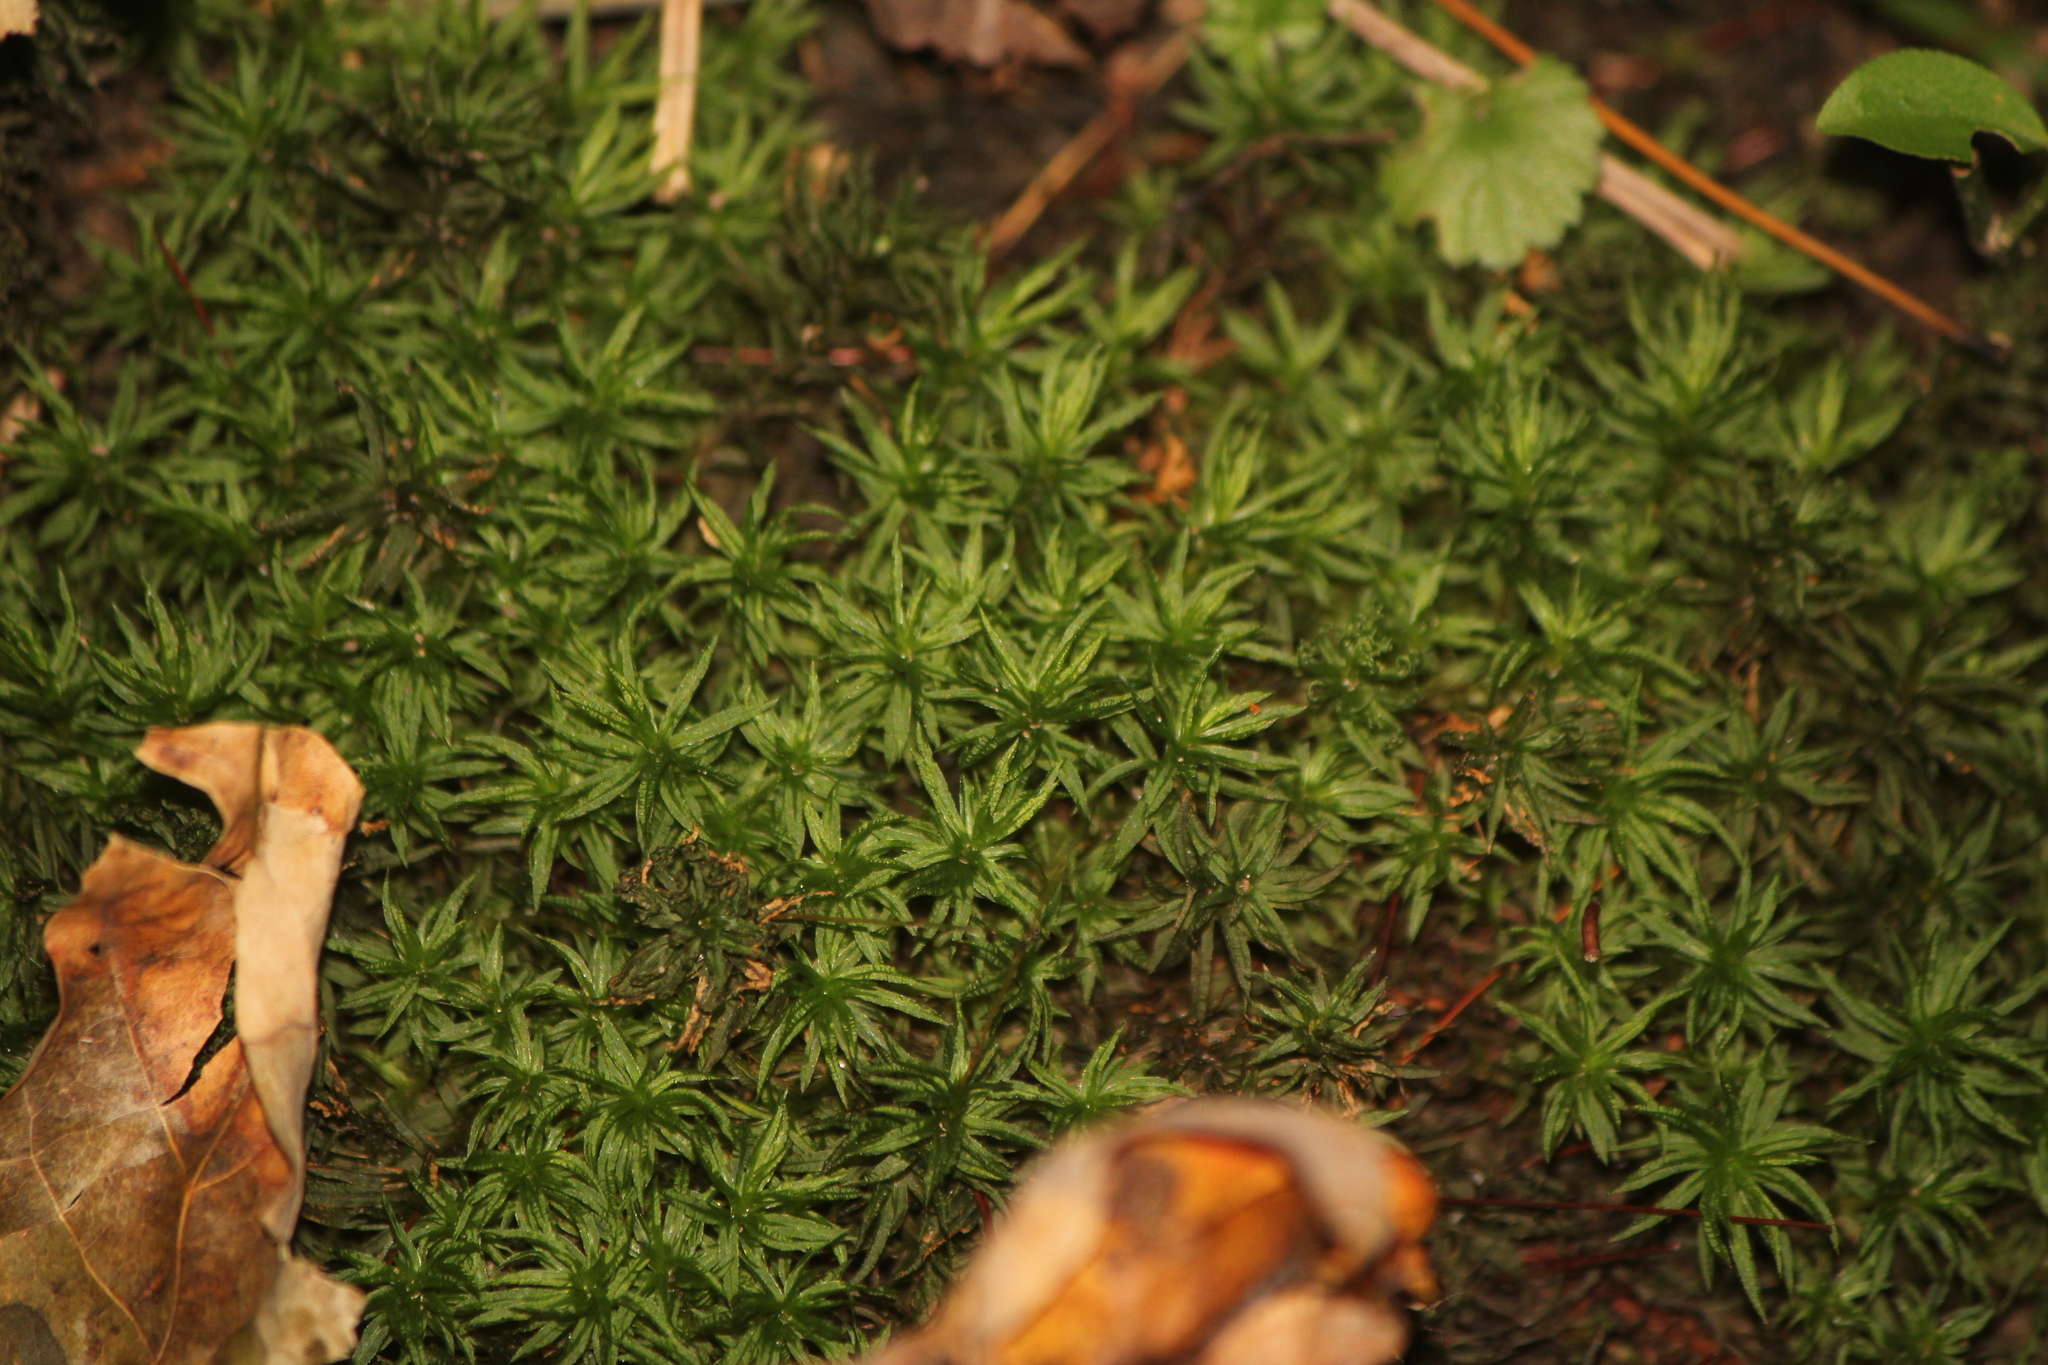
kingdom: Plantae
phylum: Bryophyta
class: Polytrichopsida
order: Polytrichales
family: Polytrichaceae
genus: Atrichum
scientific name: Atrichum undulatum
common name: Common smoothcap
